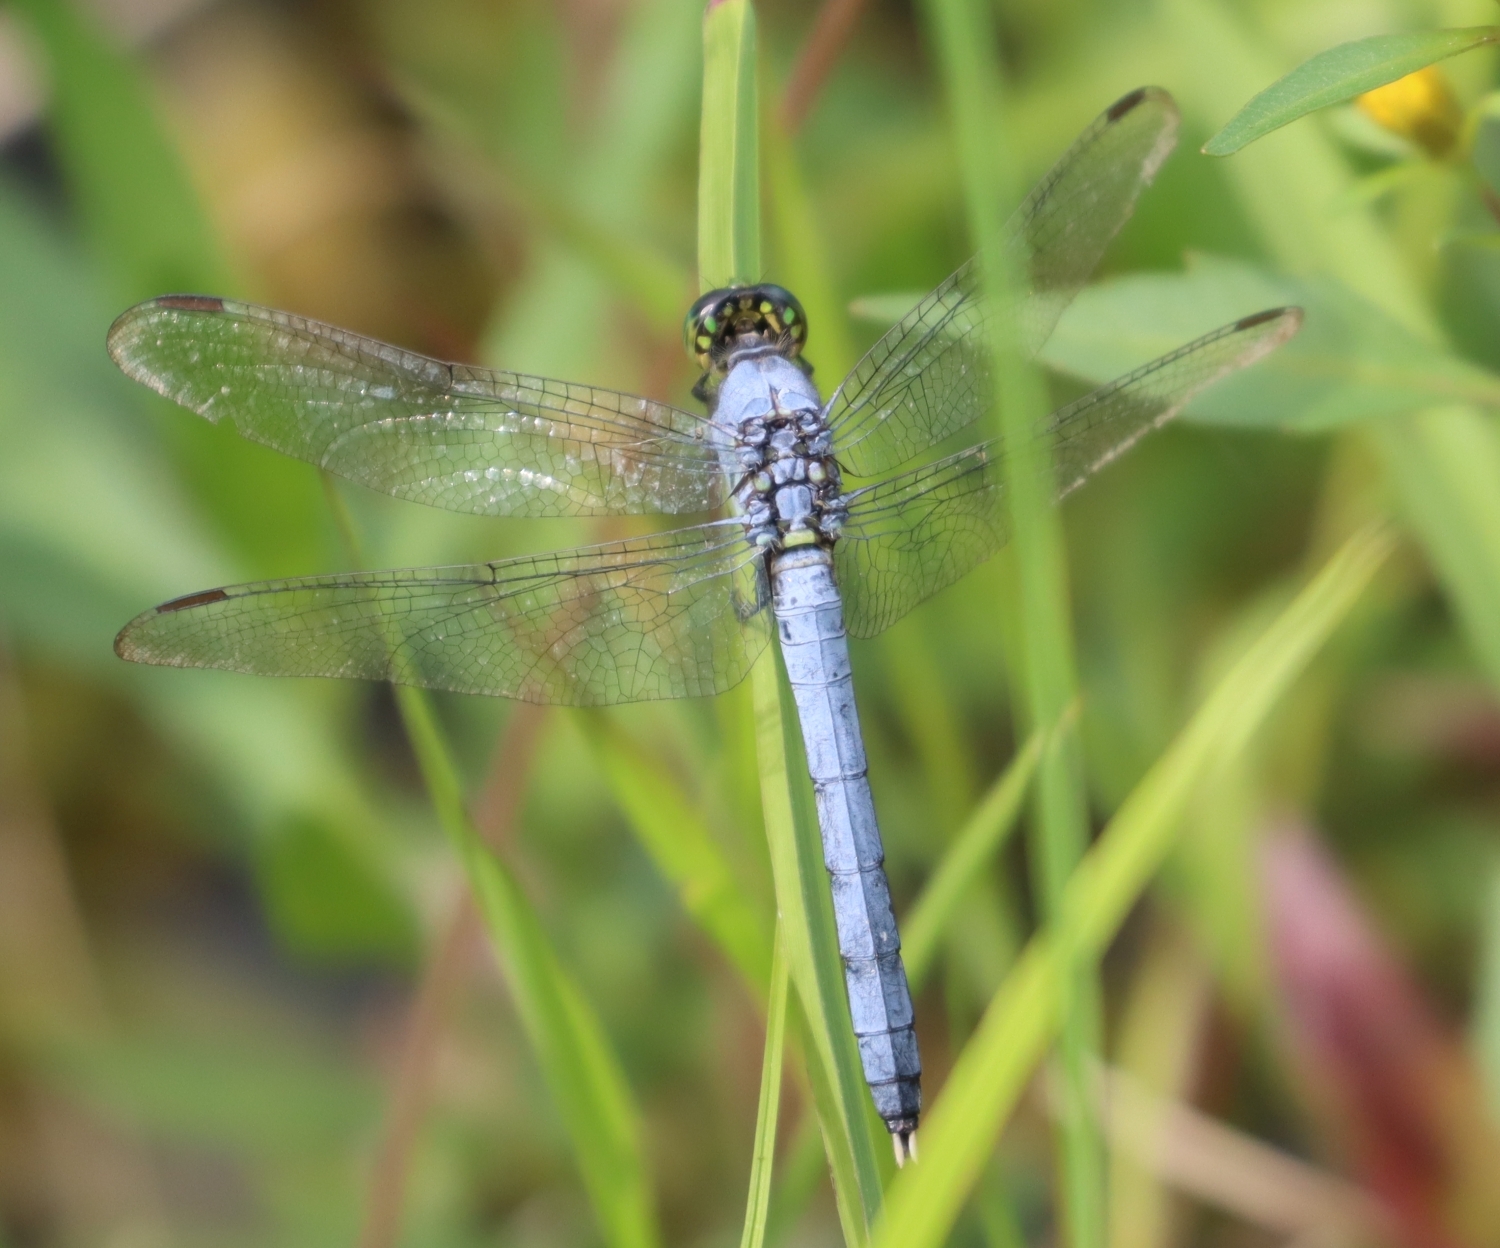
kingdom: Animalia
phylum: Arthropoda
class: Insecta
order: Odonata
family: Libellulidae
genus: Erythemis
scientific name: Erythemis simplicicollis
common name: Eastern pondhawk
